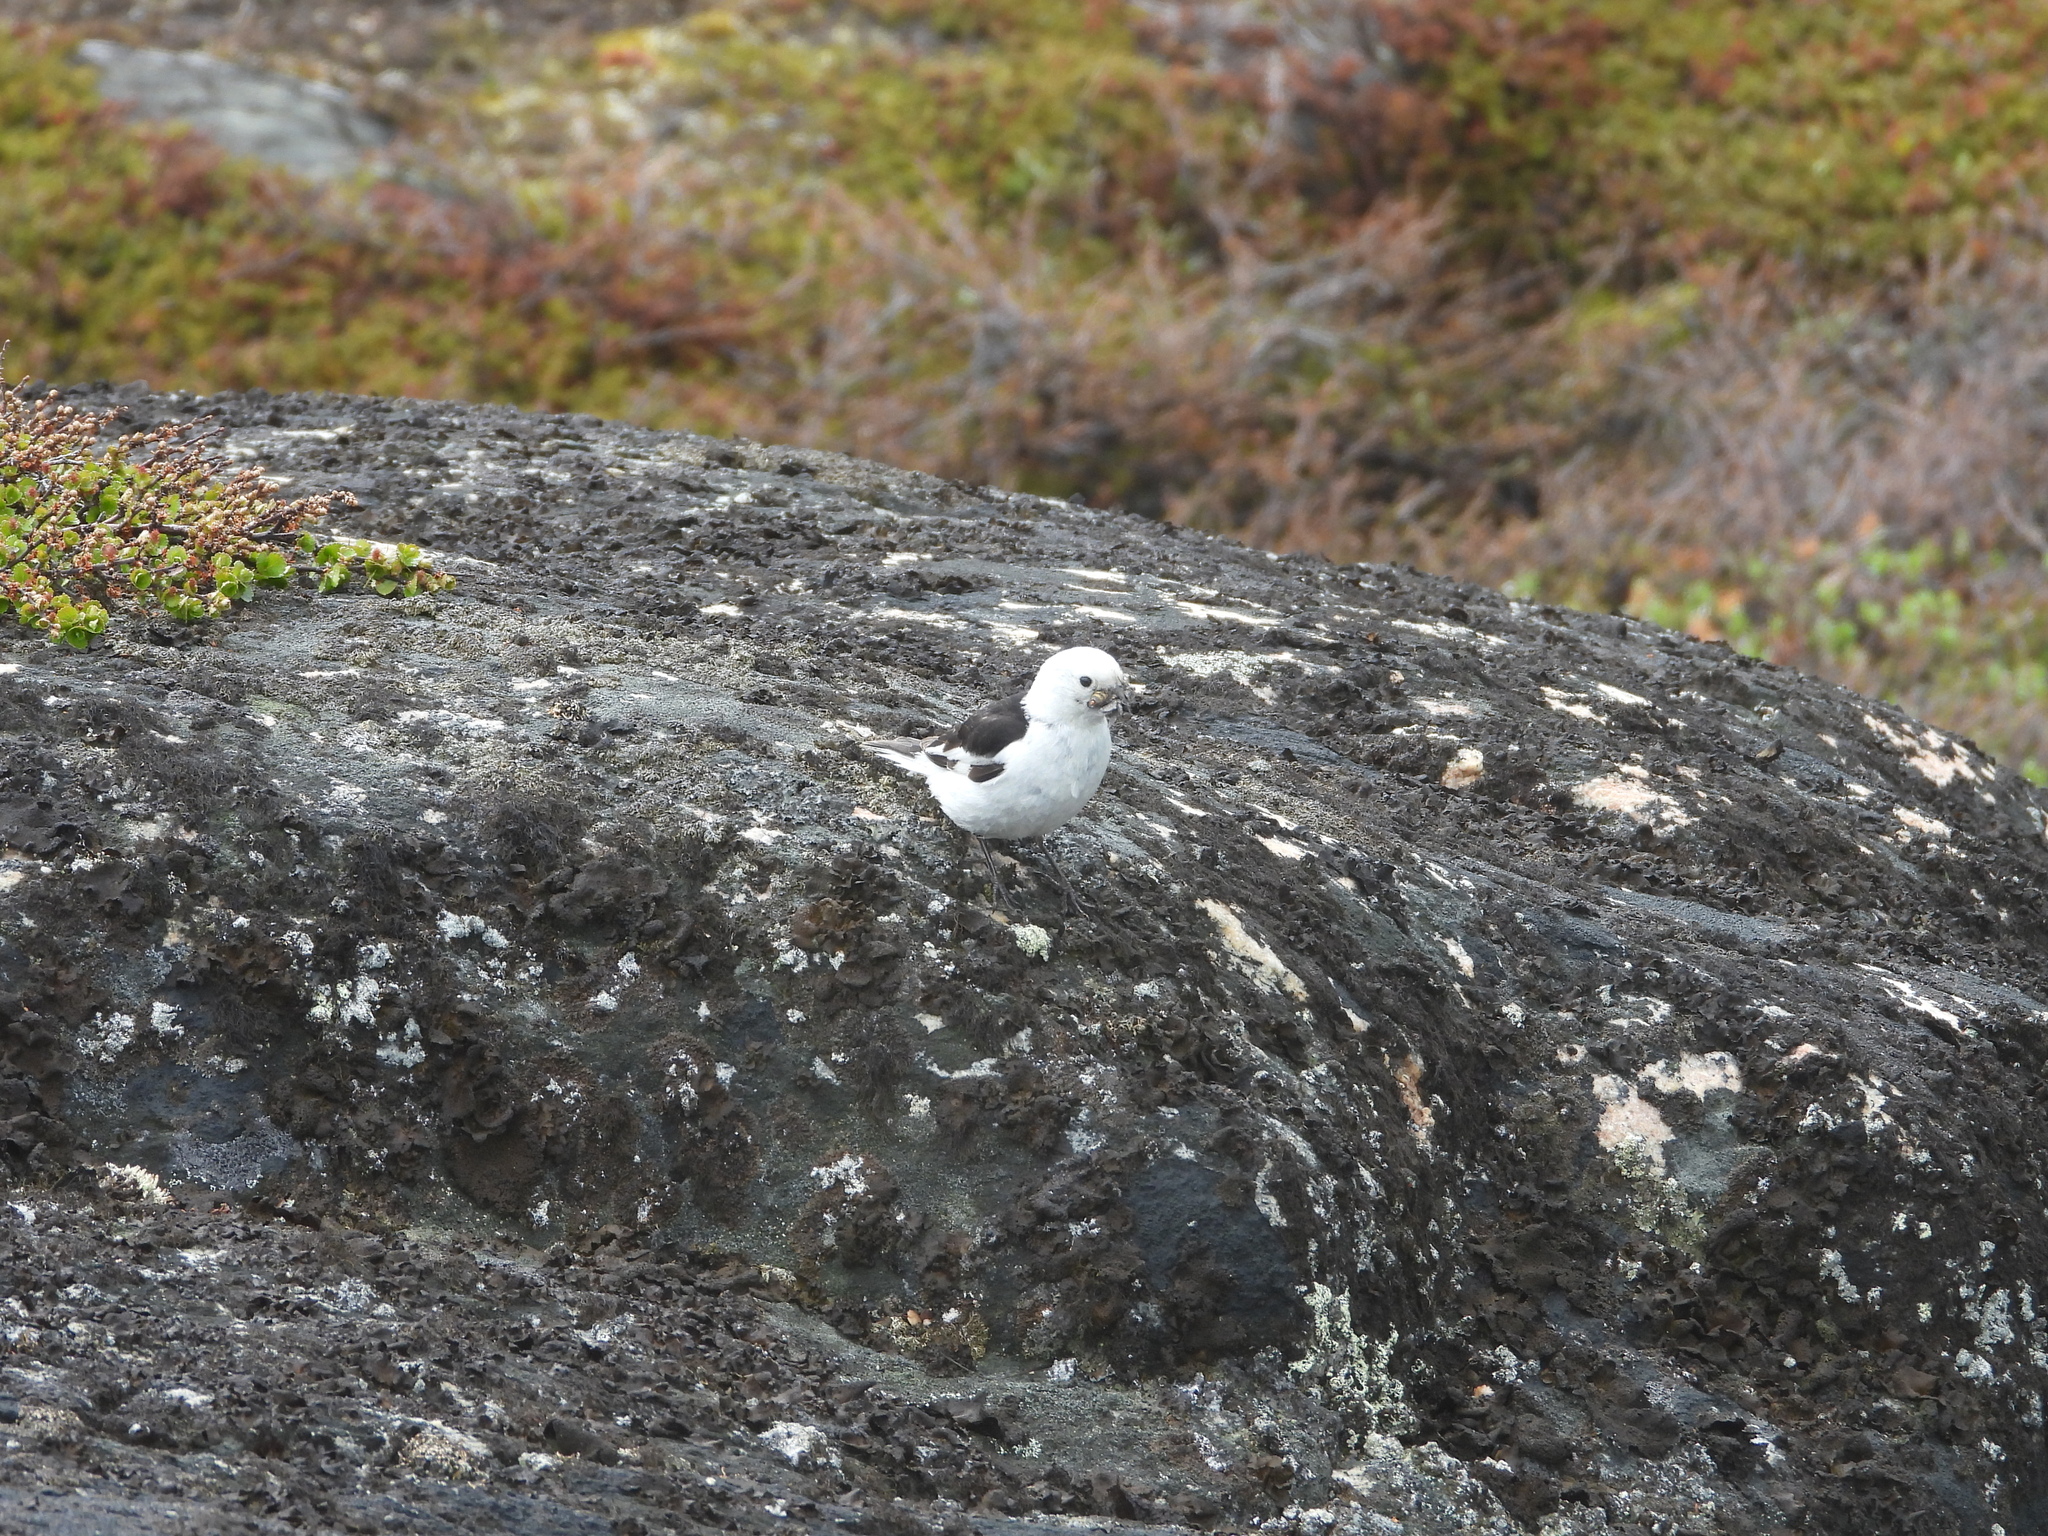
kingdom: Animalia
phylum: Chordata
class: Aves
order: Passeriformes
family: Calcariidae
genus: Plectrophenax
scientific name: Plectrophenax nivalis
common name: Snow bunting
